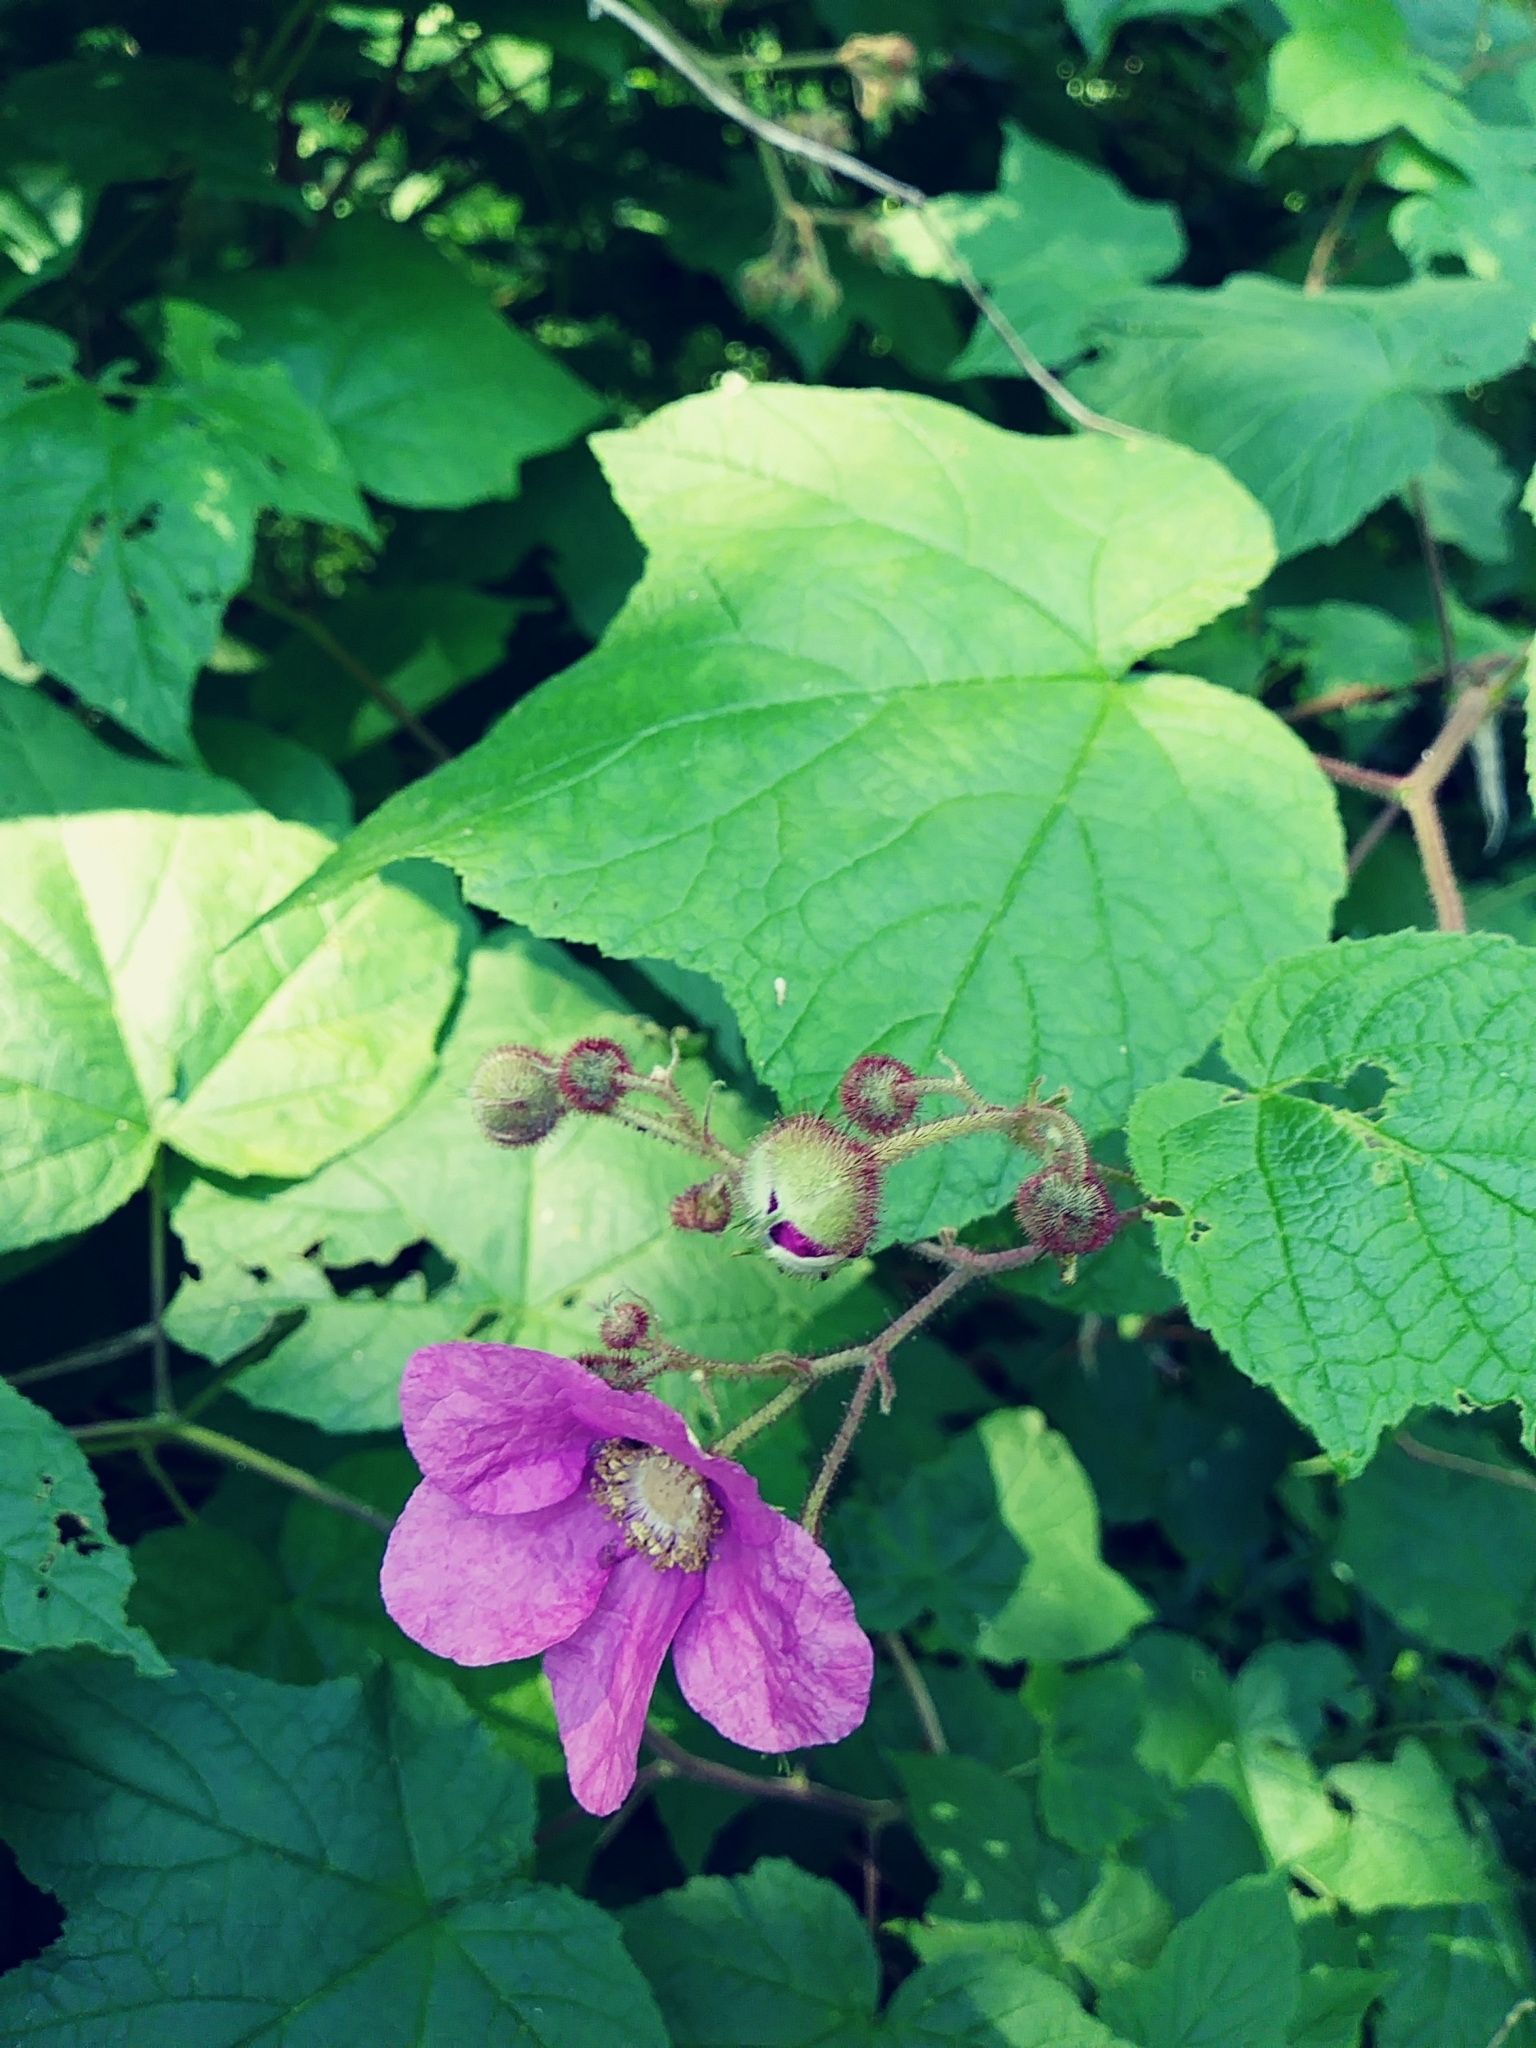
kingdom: Plantae
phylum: Tracheophyta
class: Magnoliopsida
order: Rosales
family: Rosaceae
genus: Rubus
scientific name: Rubus odoratus
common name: Purple-flowered raspberry
